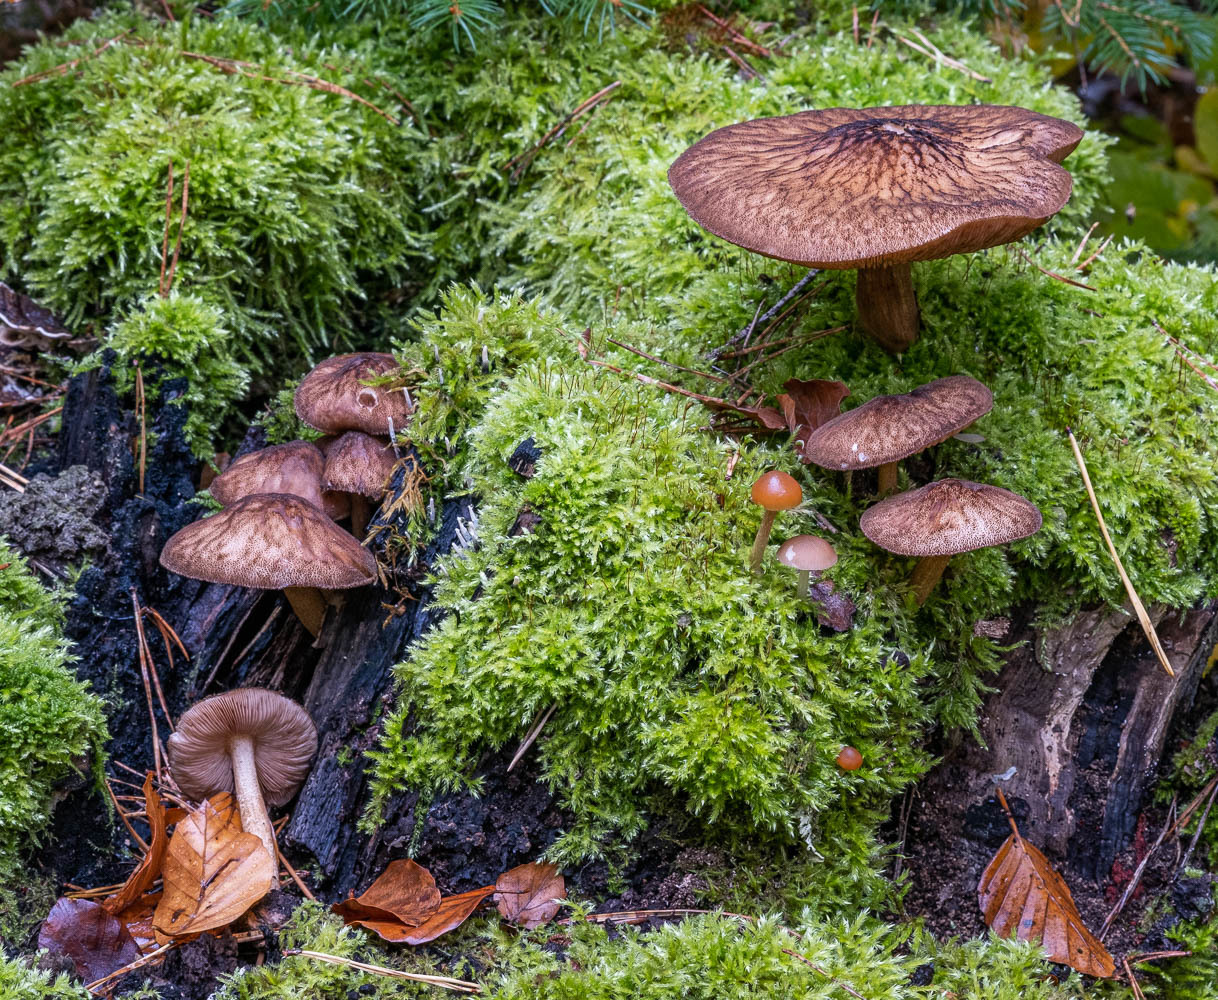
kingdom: Fungi
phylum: Basidiomycota
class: Agaricomycetes
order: Agaricales
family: Pluteaceae
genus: Pluteus
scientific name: Pluteus umbrosus
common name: Velvet shield
